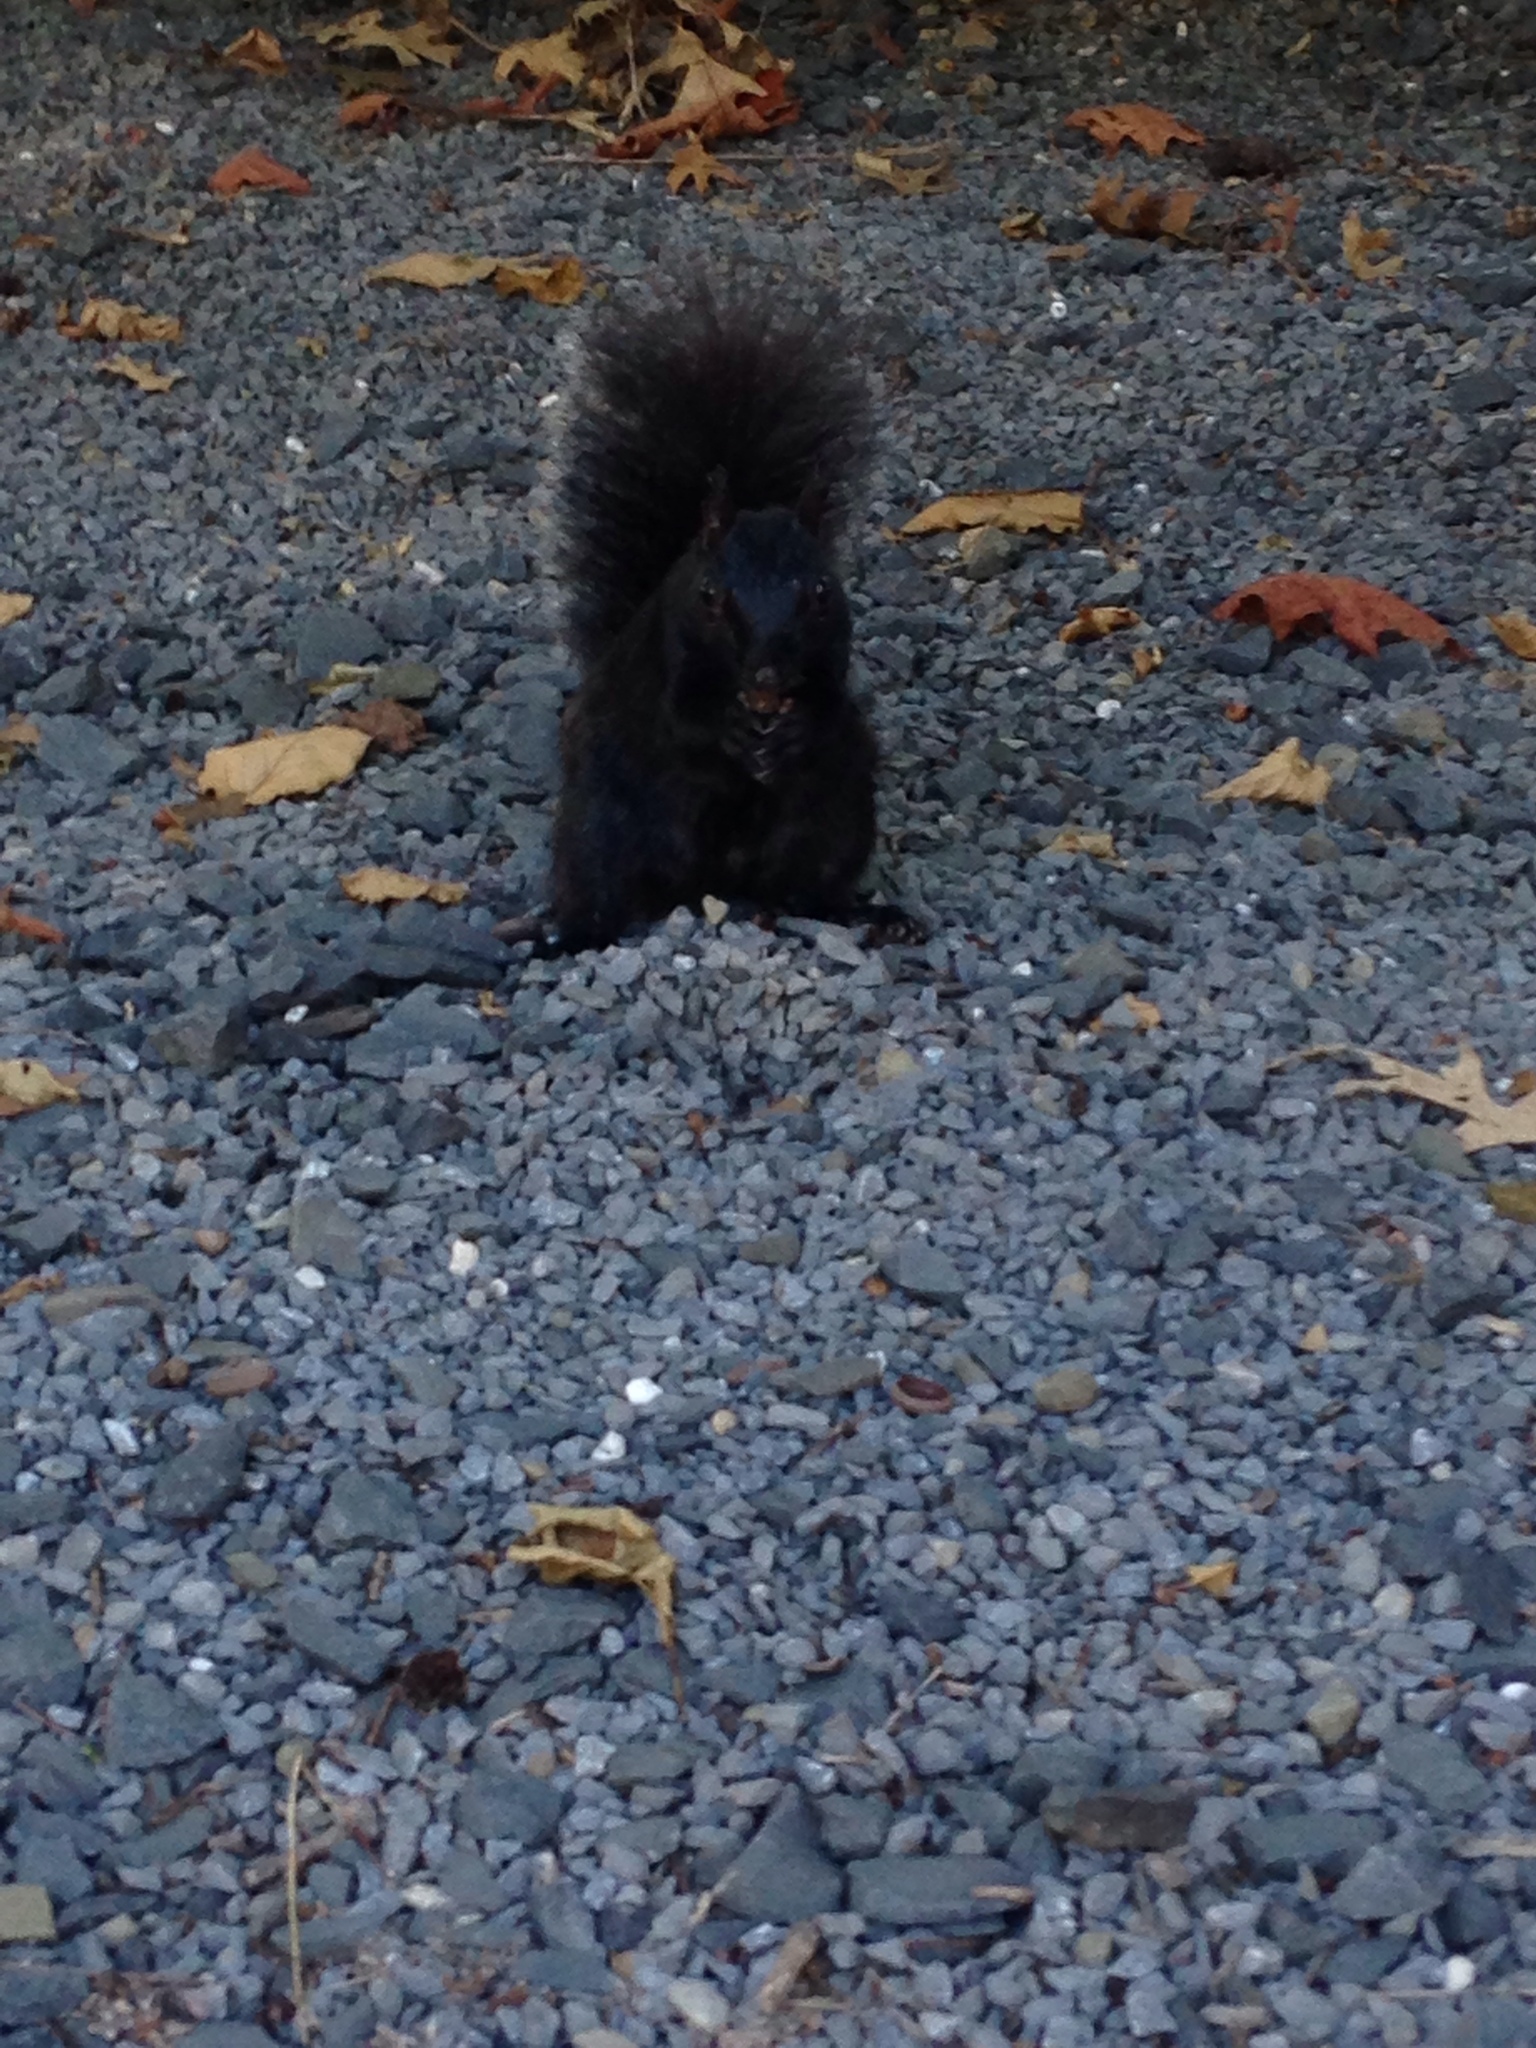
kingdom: Animalia
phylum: Chordata
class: Mammalia
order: Rodentia
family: Sciuridae
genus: Sciurus
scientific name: Sciurus carolinensis
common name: Eastern gray squirrel
